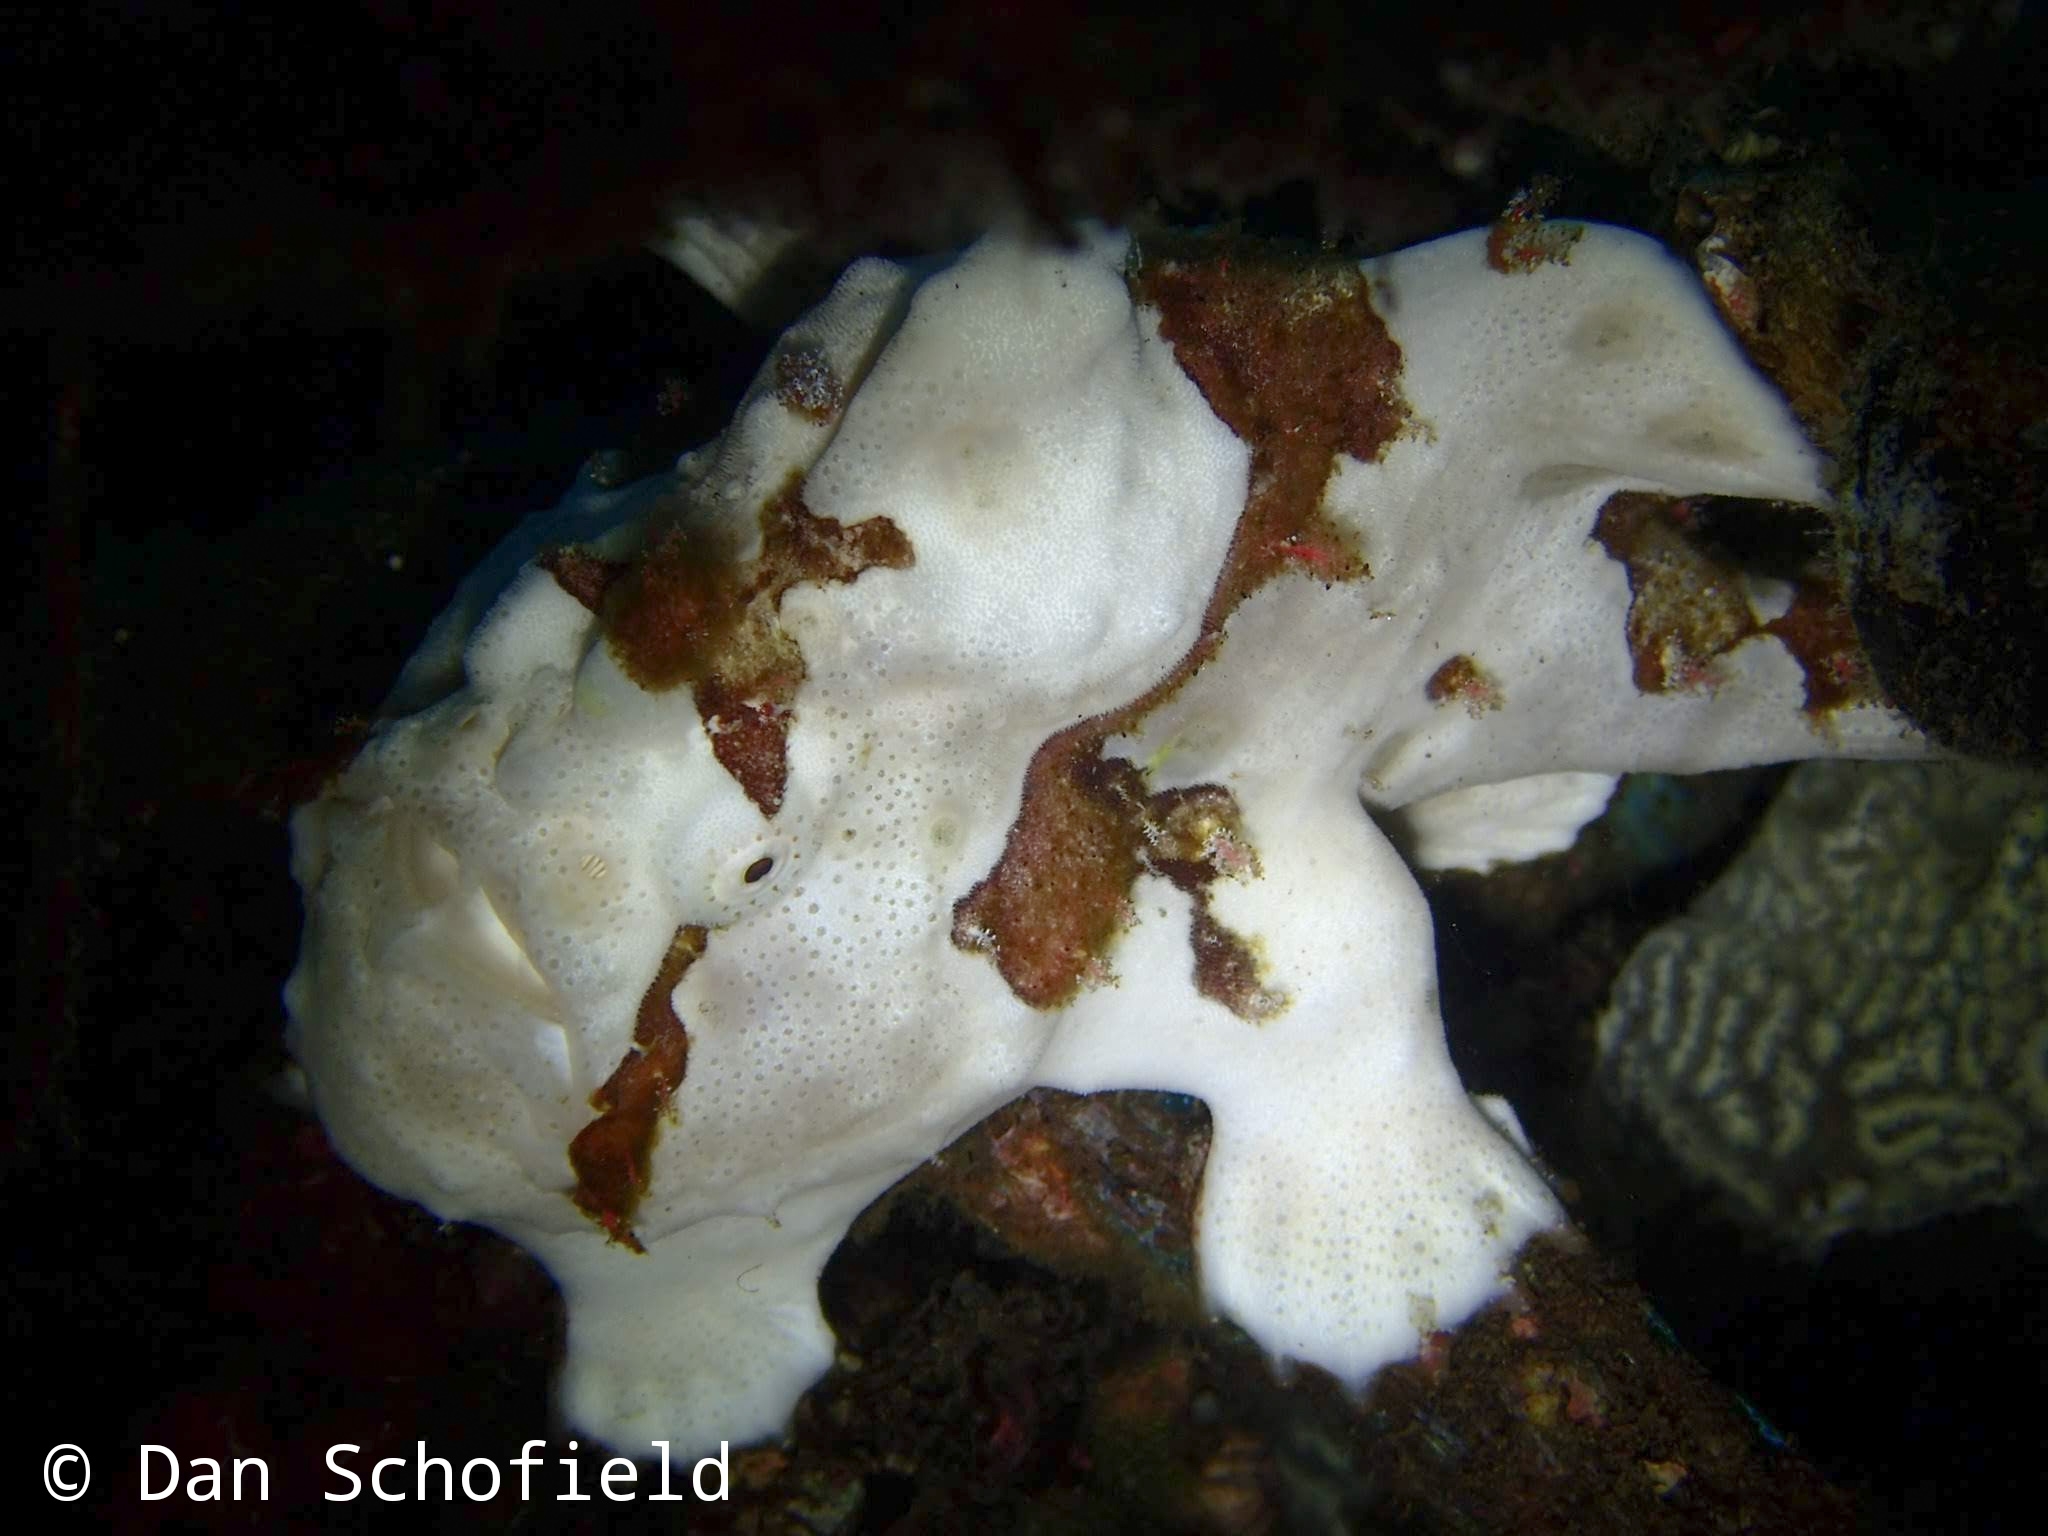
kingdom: Animalia
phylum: Chordata
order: Lophiiformes
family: Antennariidae
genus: Antennarius
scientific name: Antennarius maculatus
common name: Warty frogfish
